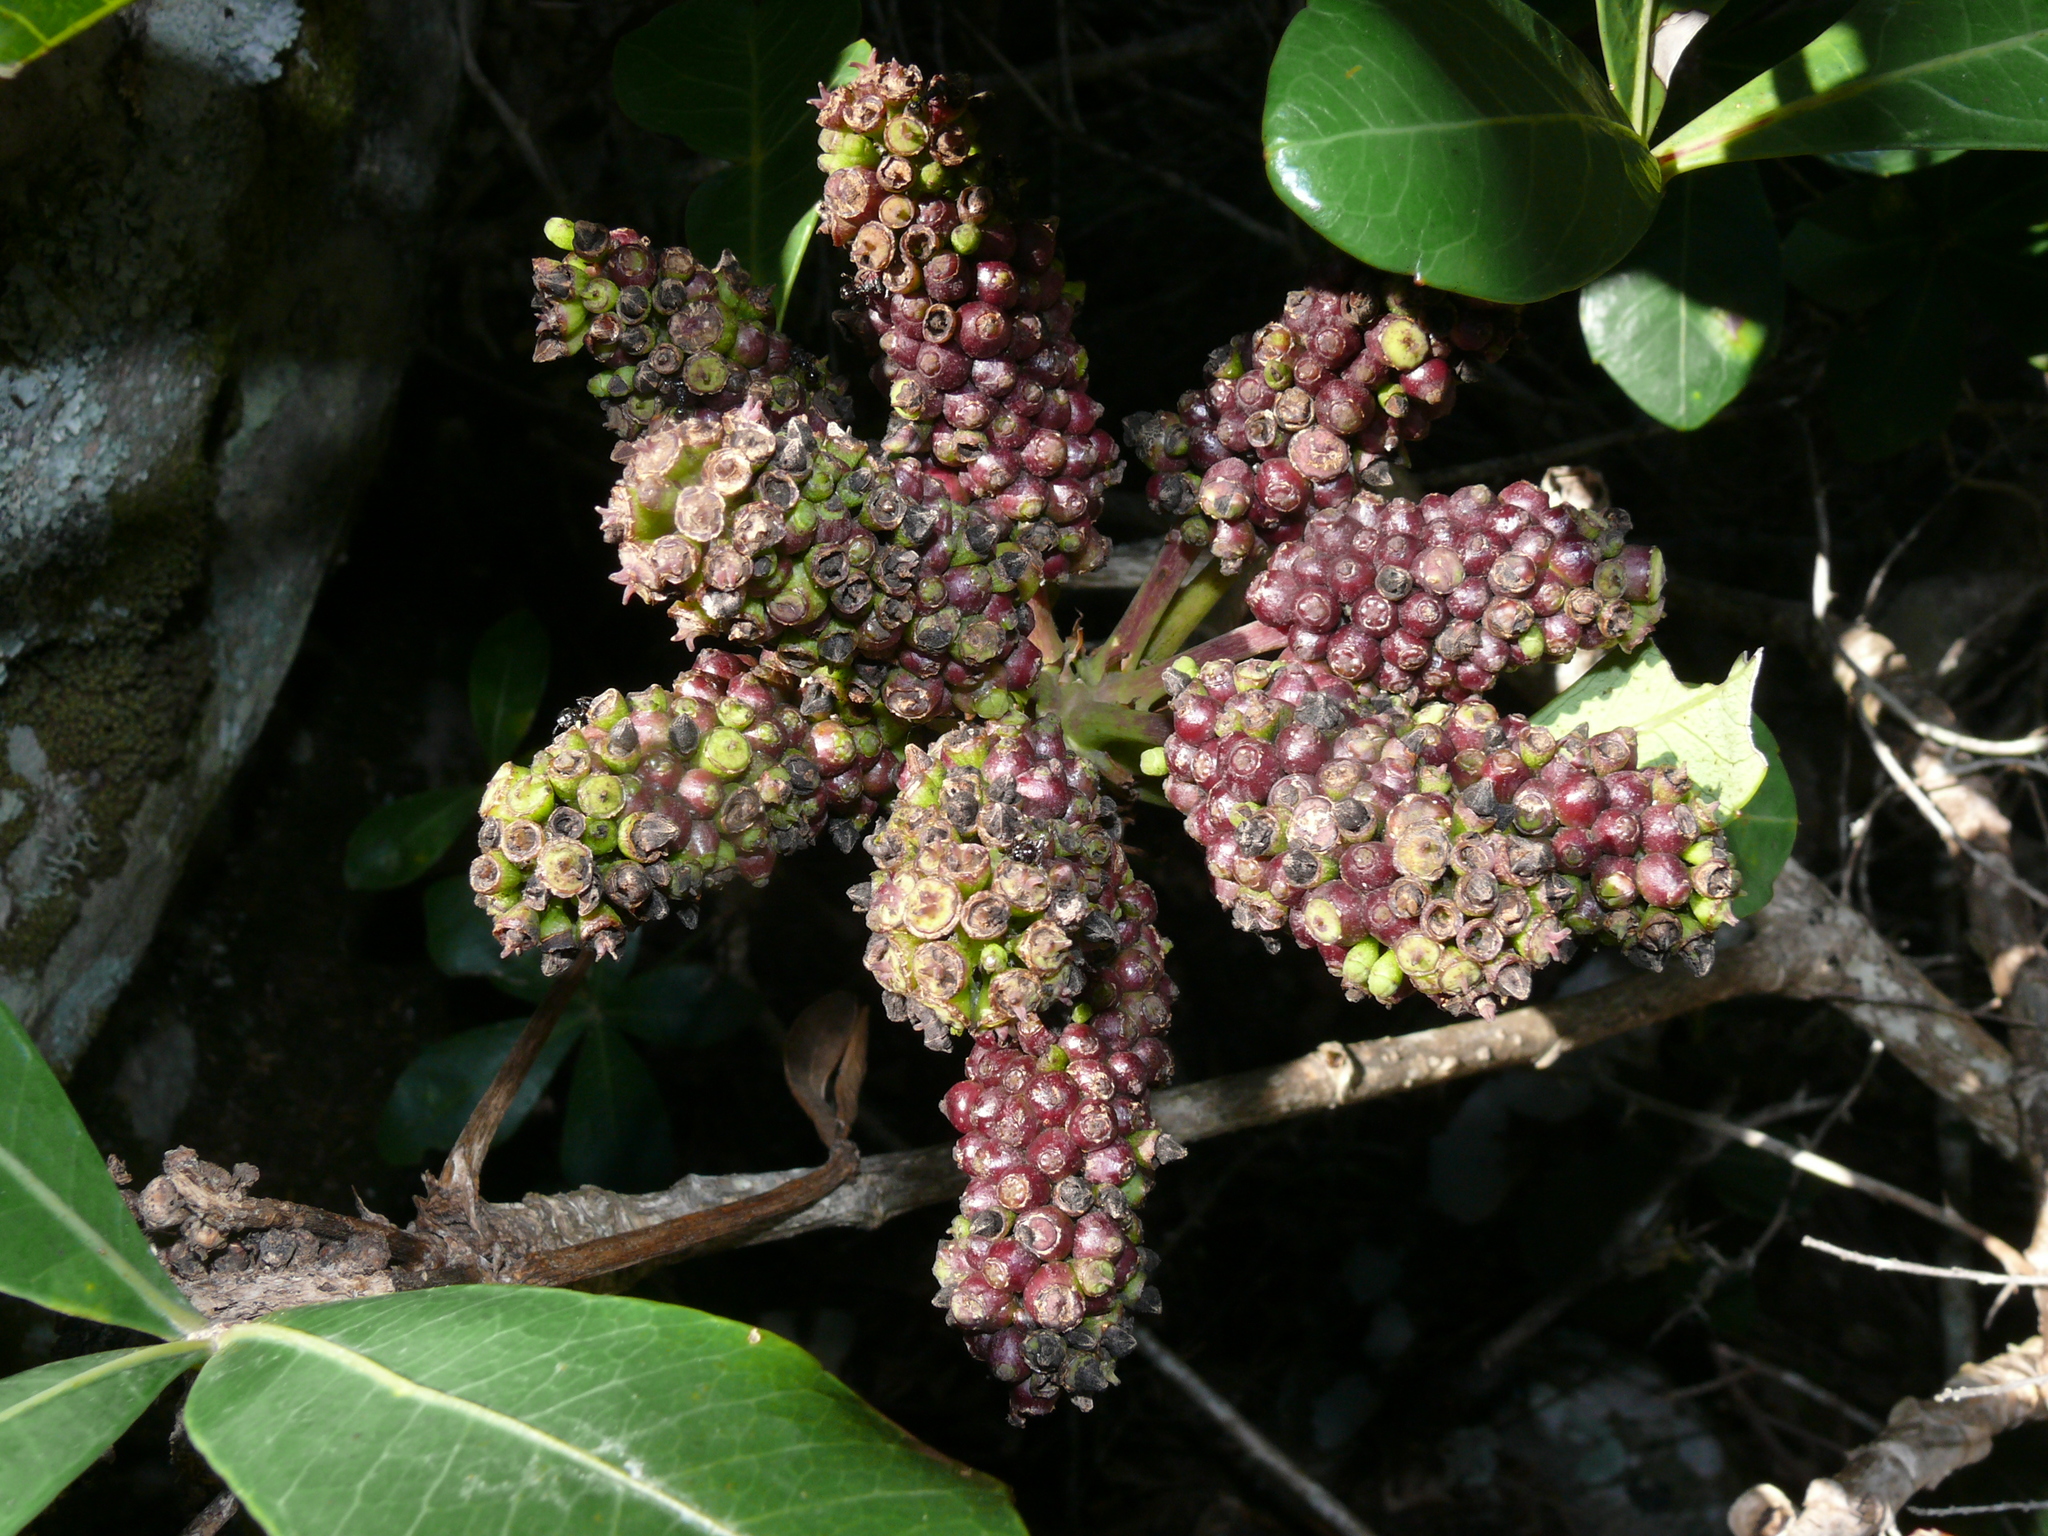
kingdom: Plantae
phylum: Tracheophyta
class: Magnoliopsida
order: Apiales
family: Araliaceae
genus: Cussonia
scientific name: Cussonia thyrsiflora
